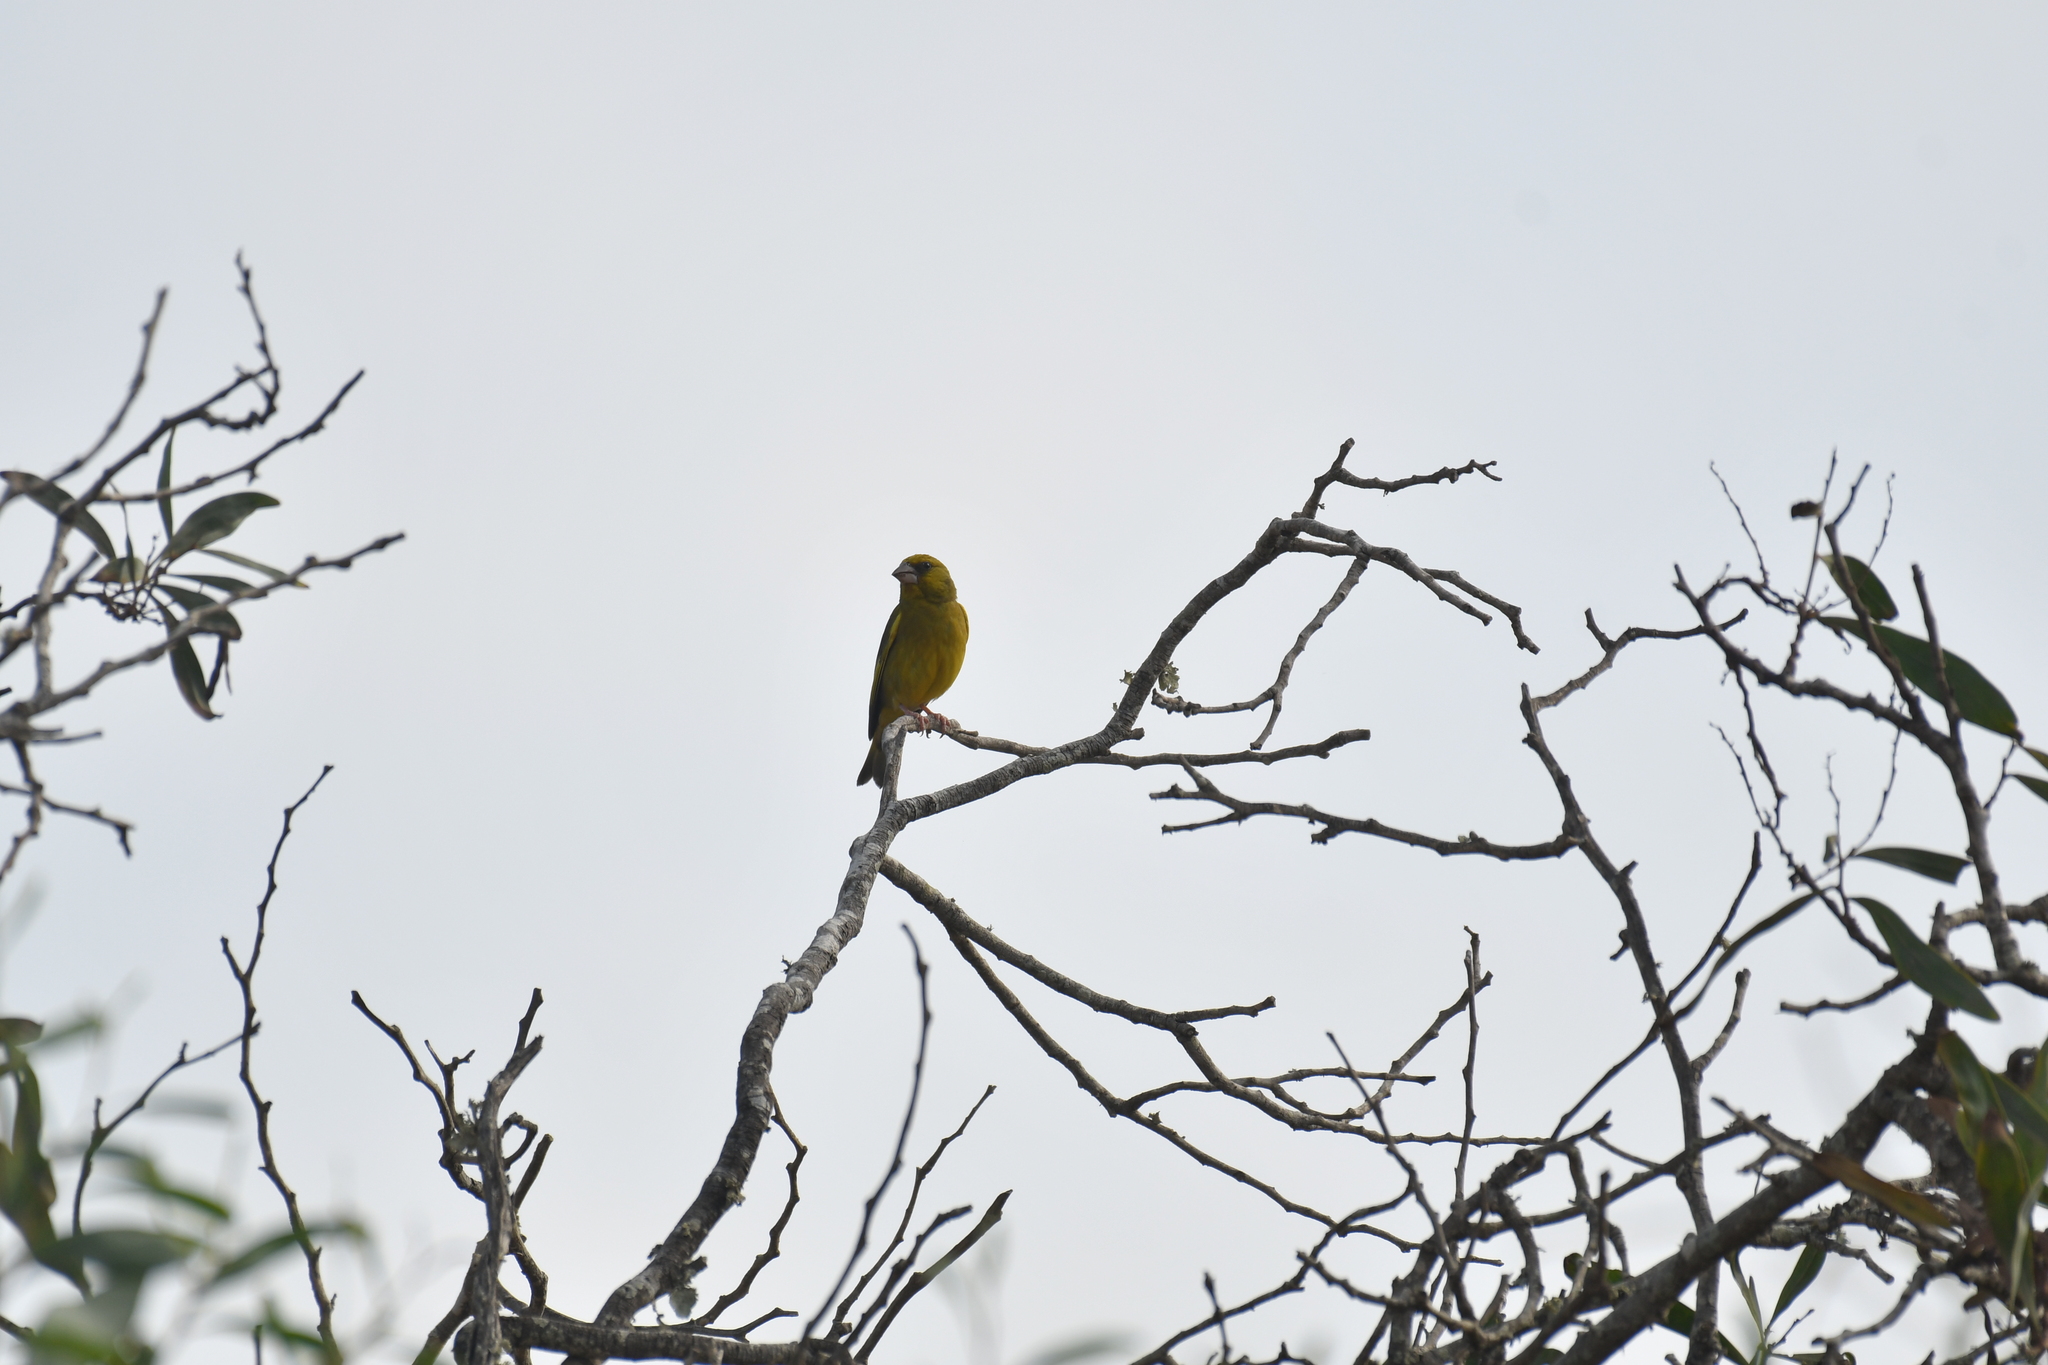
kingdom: Plantae
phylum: Tracheophyta
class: Liliopsida
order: Poales
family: Poaceae
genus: Chloris
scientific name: Chloris chloris
